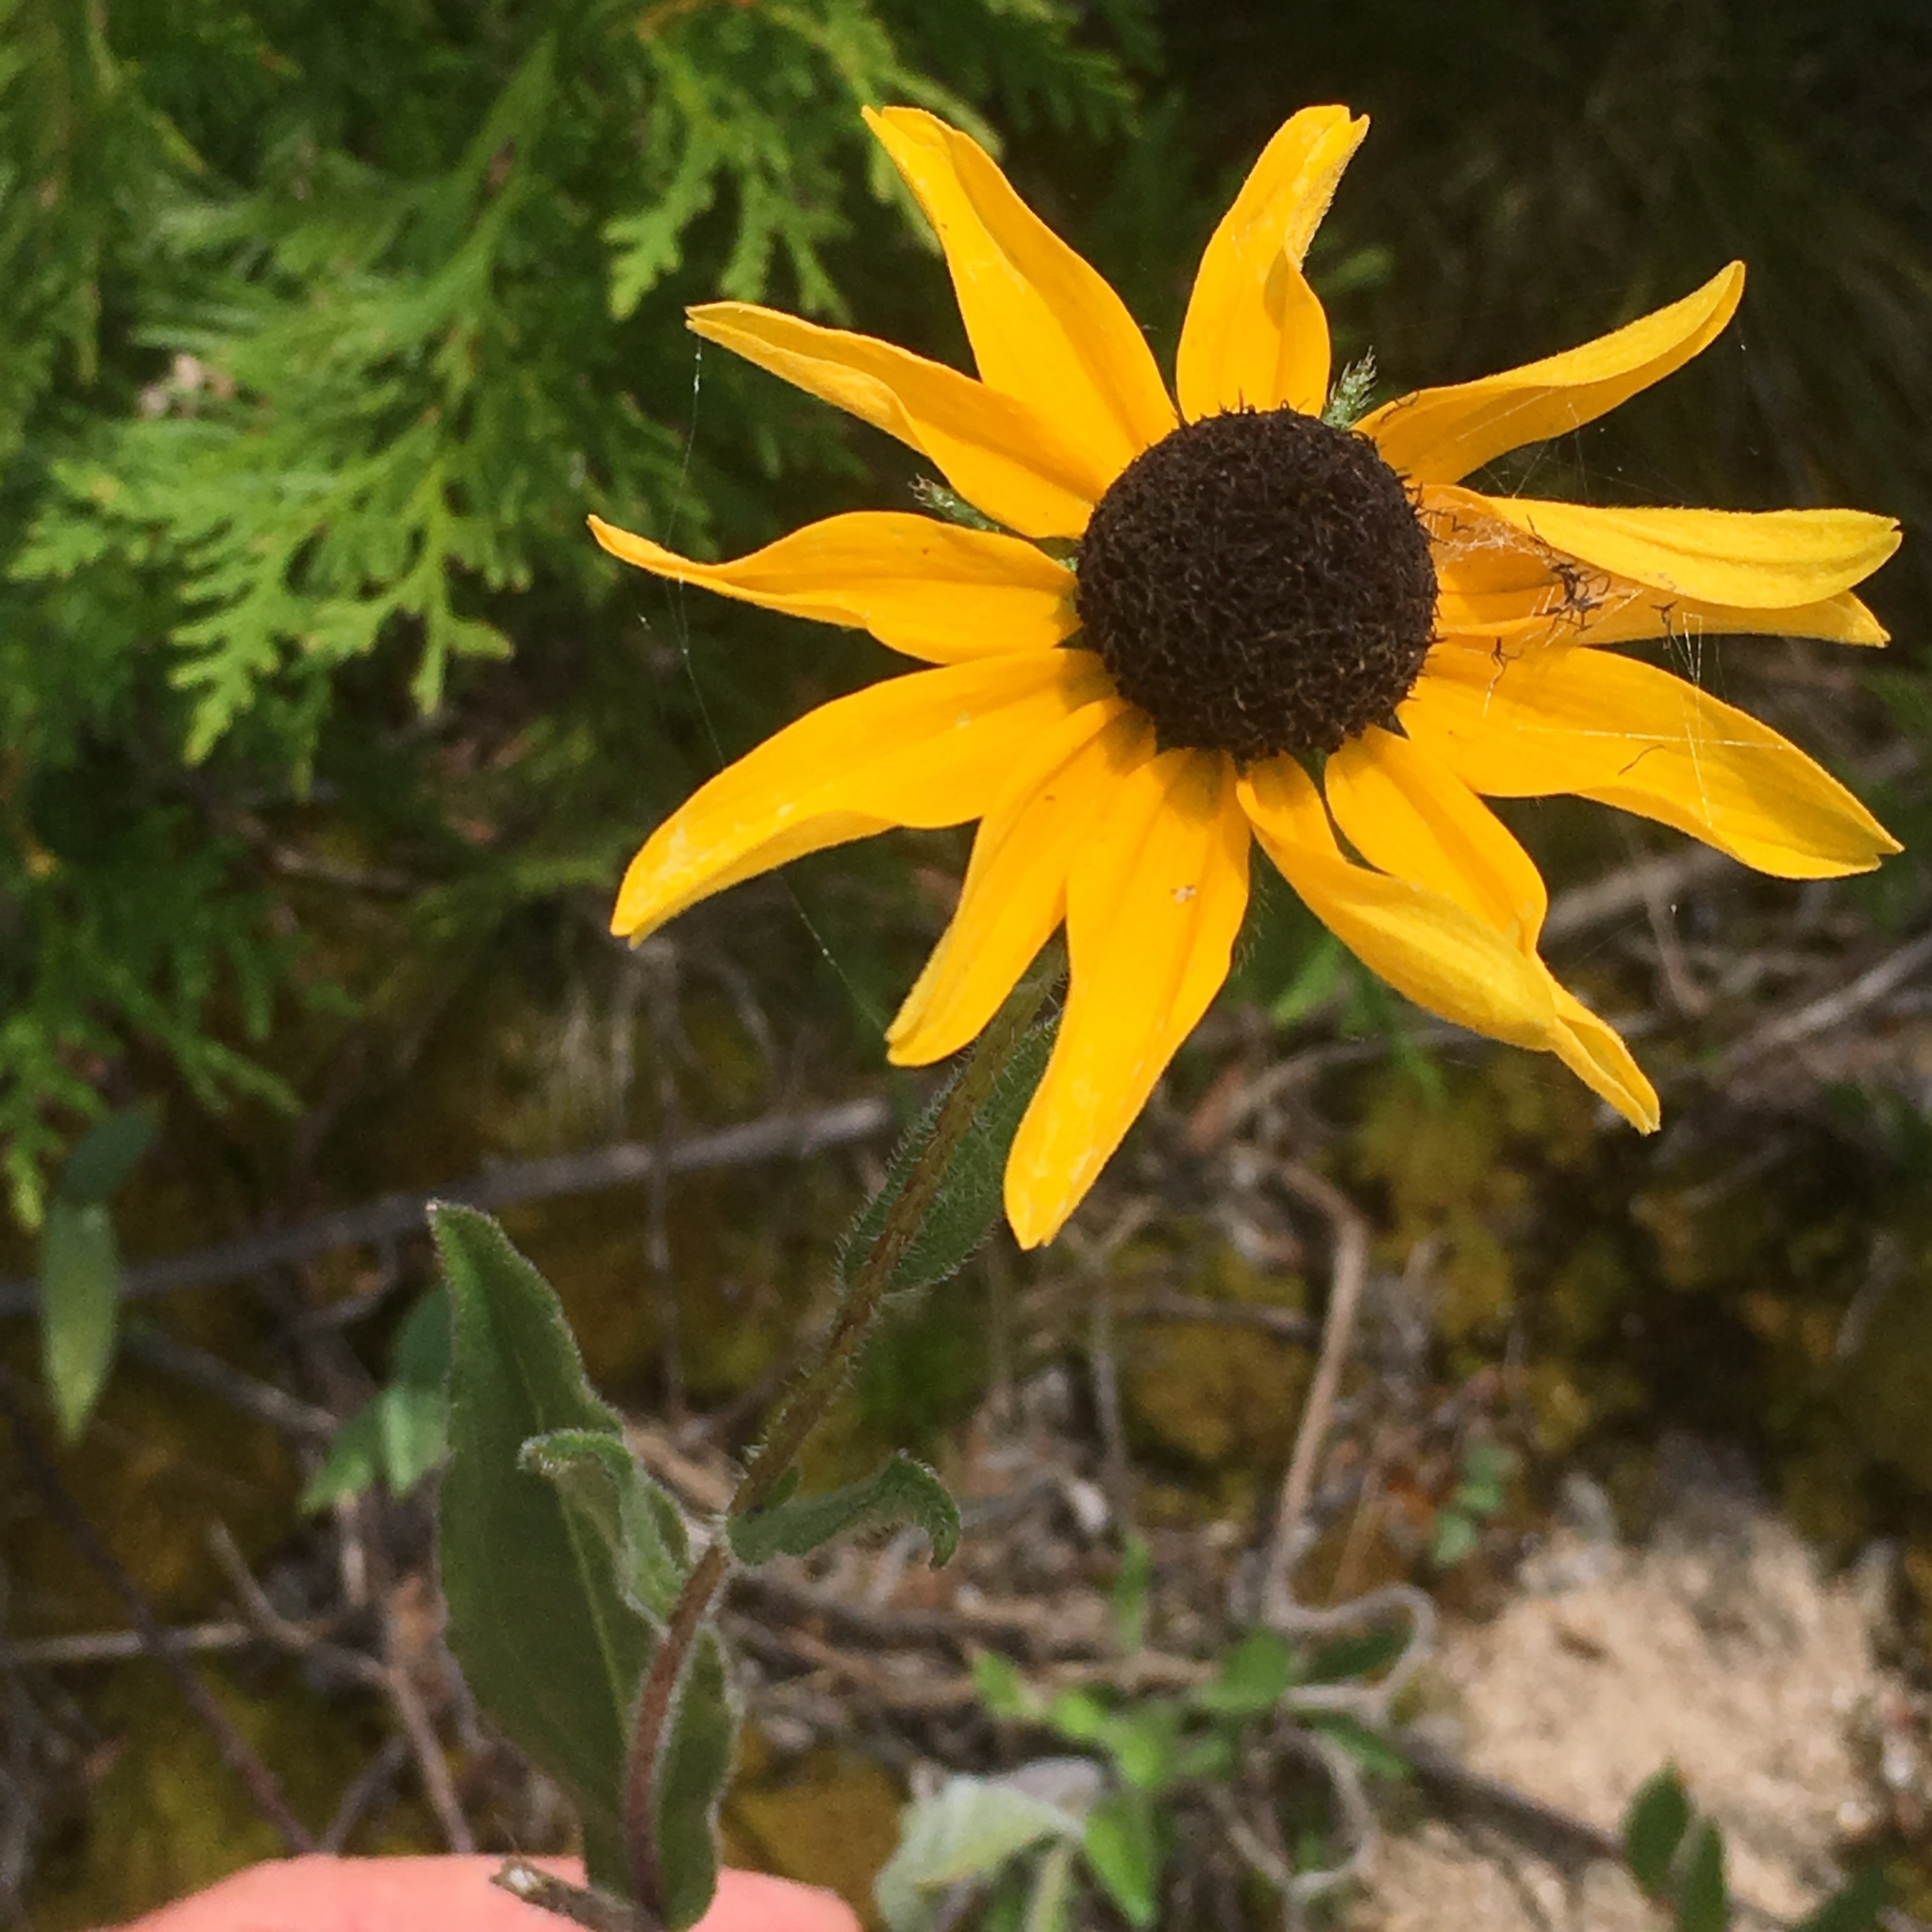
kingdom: Plantae
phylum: Tracheophyta
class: Magnoliopsida
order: Asterales
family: Asteraceae
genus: Rudbeckia
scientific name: Rudbeckia hirta
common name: Black-eyed-susan
